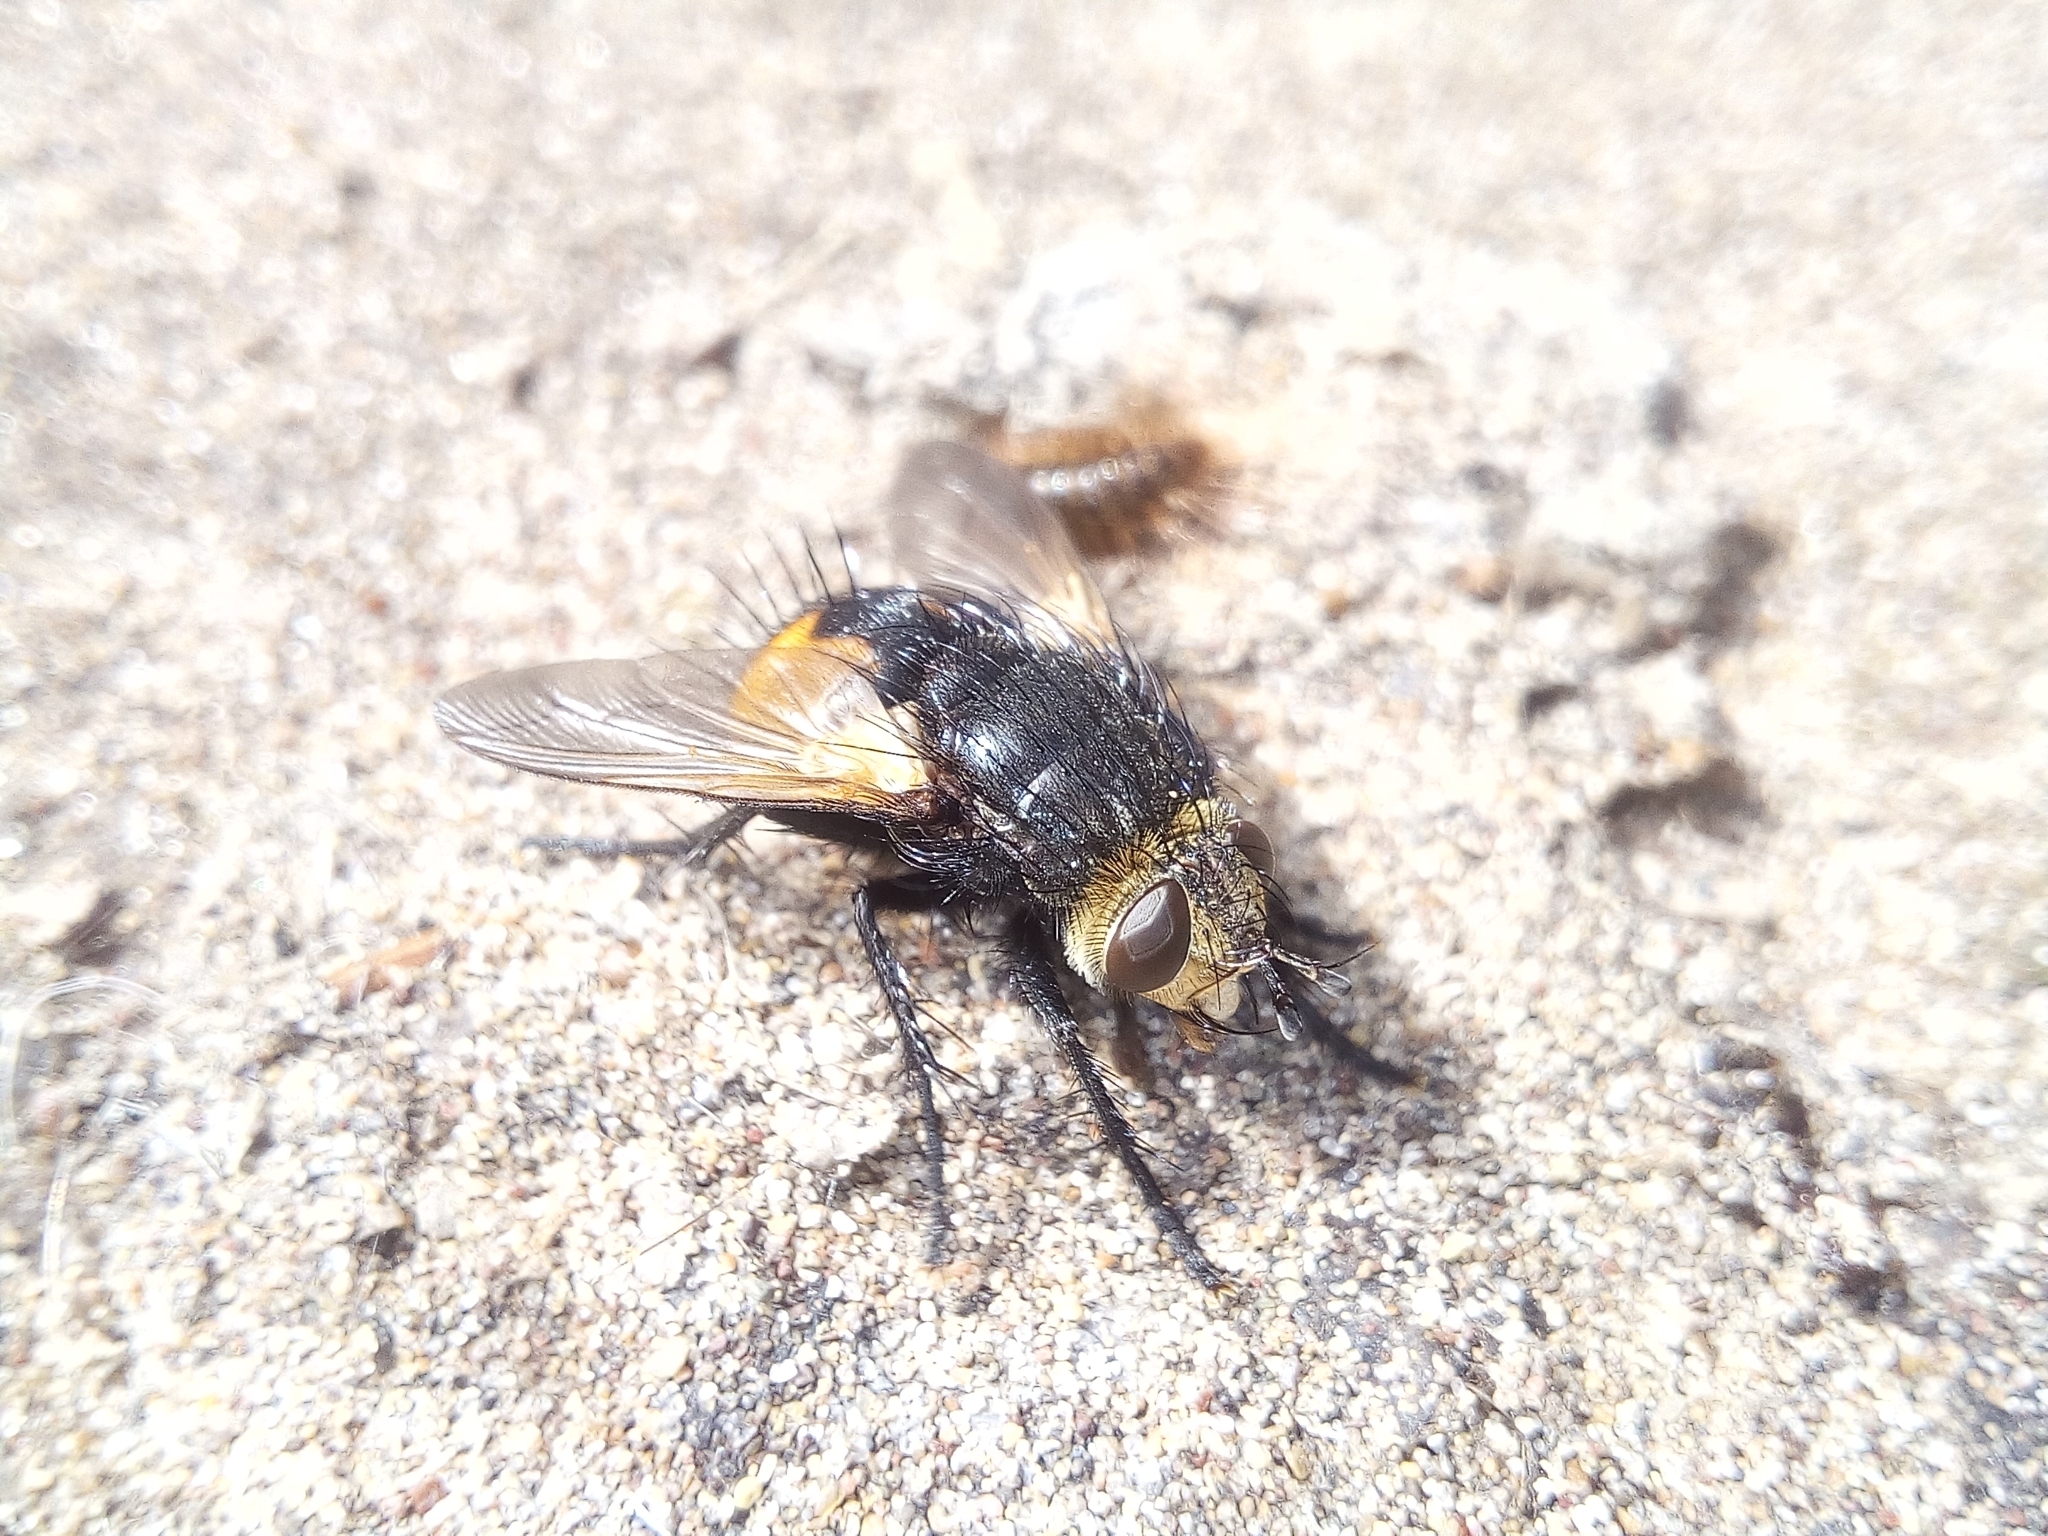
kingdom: Animalia
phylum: Arthropoda
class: Insecta
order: Diptera
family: Tachinidae
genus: Nowickia
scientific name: Nowickia ferox
